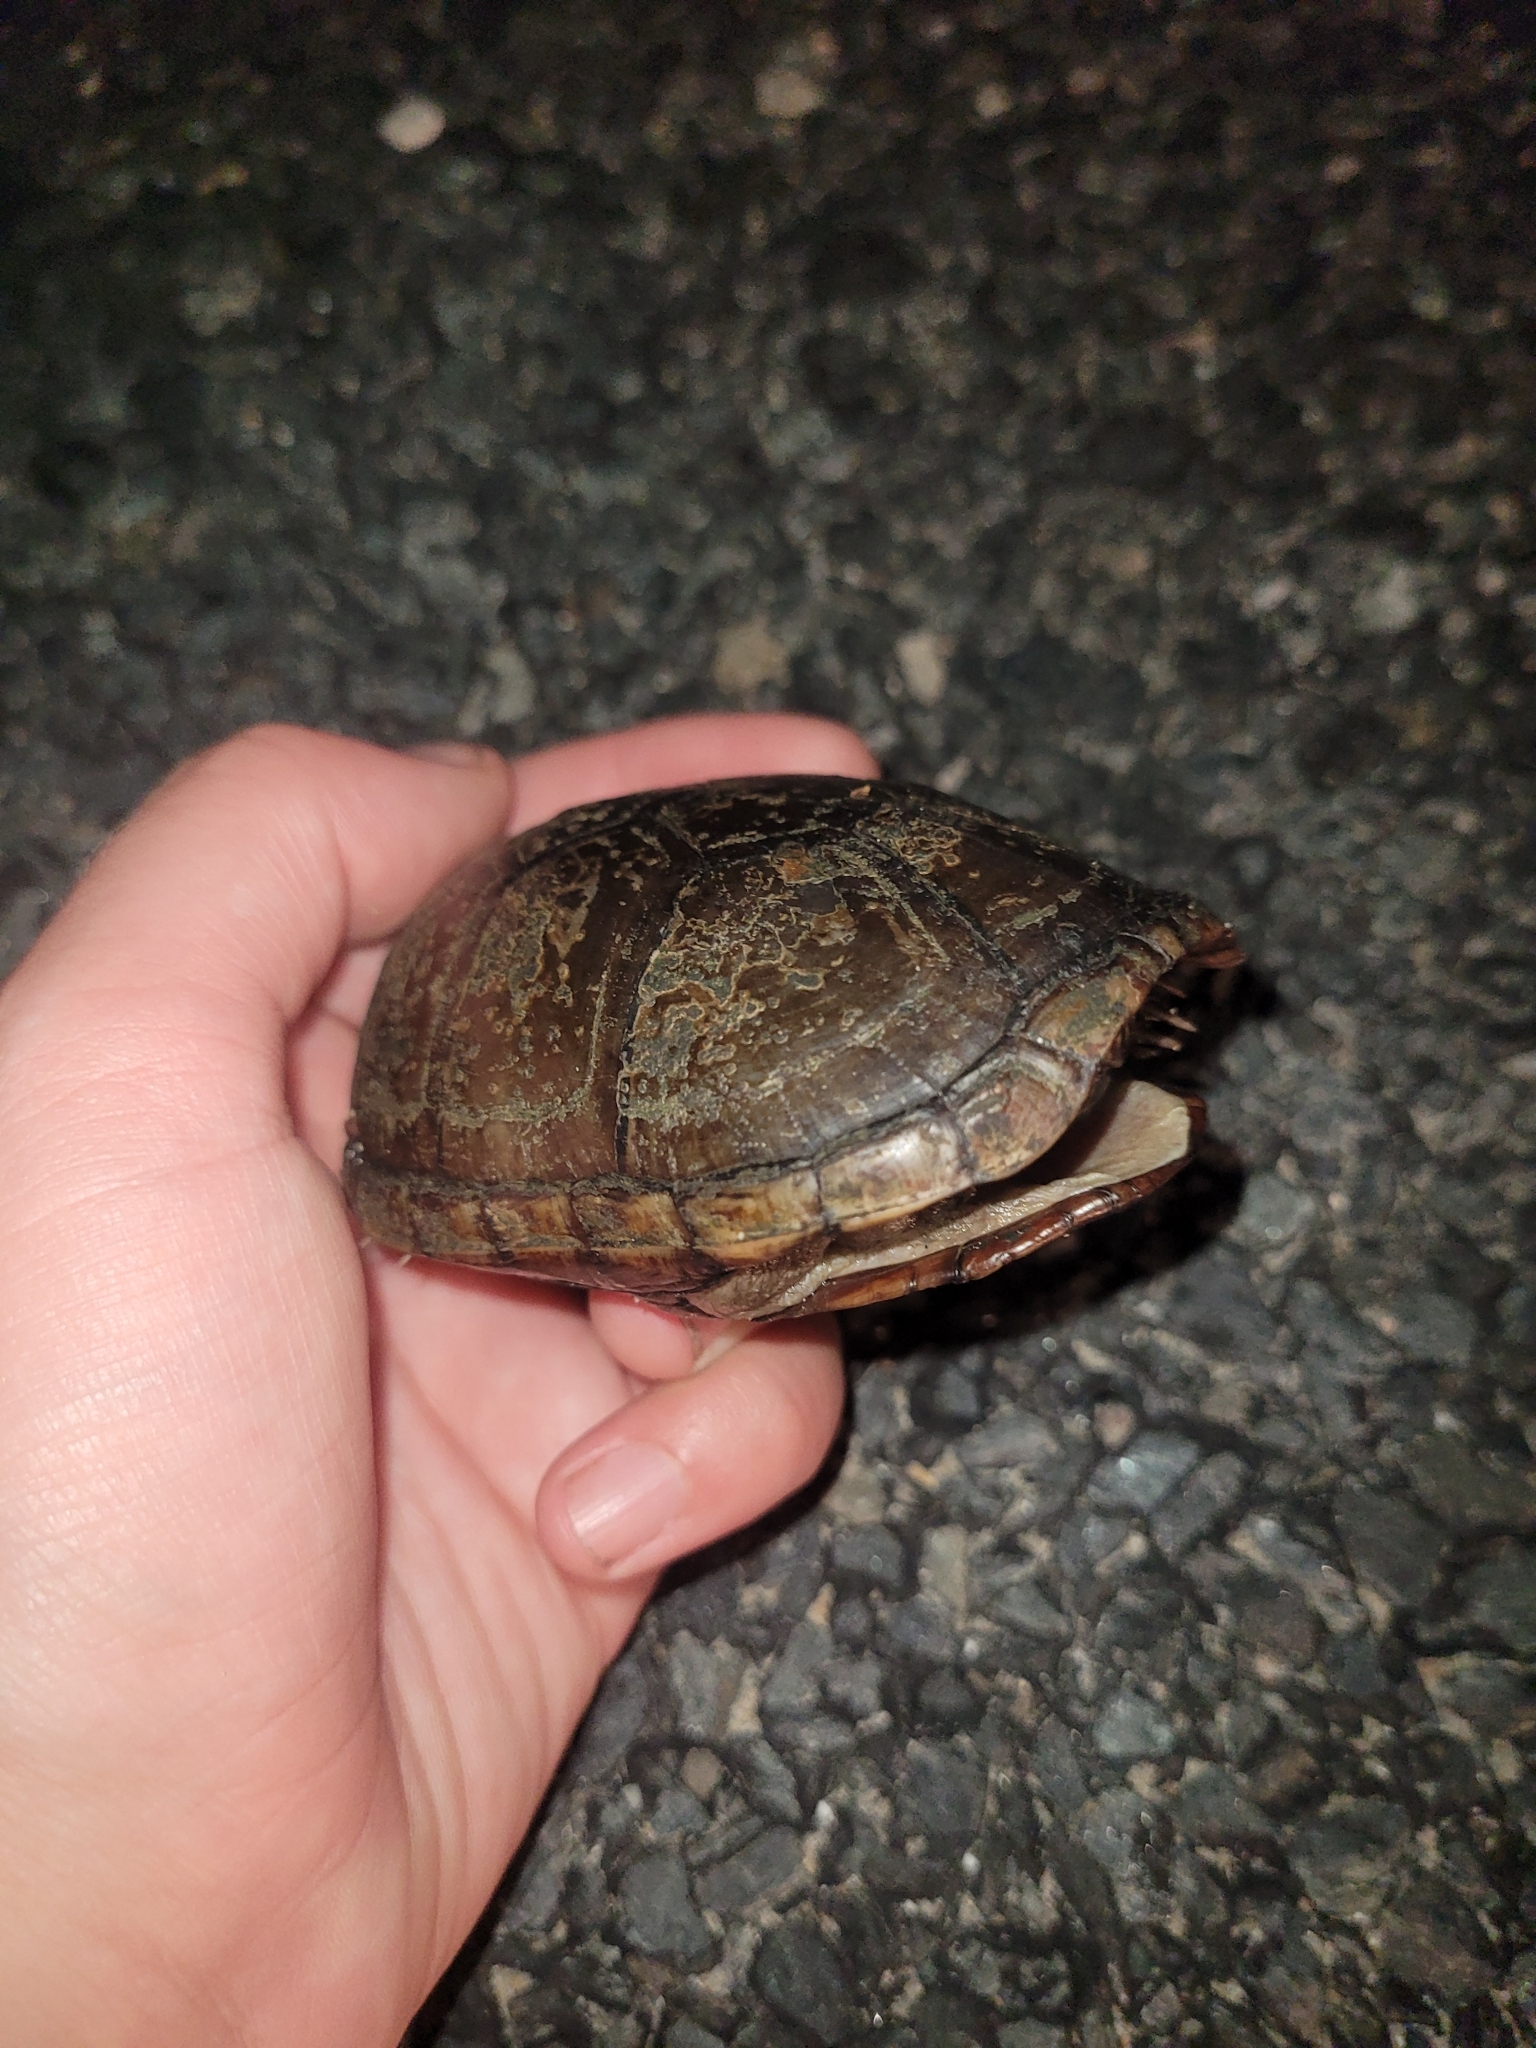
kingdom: Animalia
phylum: Chordata
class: Testudines
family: Kinosternidae
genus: Kinosternon
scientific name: Kinosternon subrubrum
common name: Eastern mud turtle
